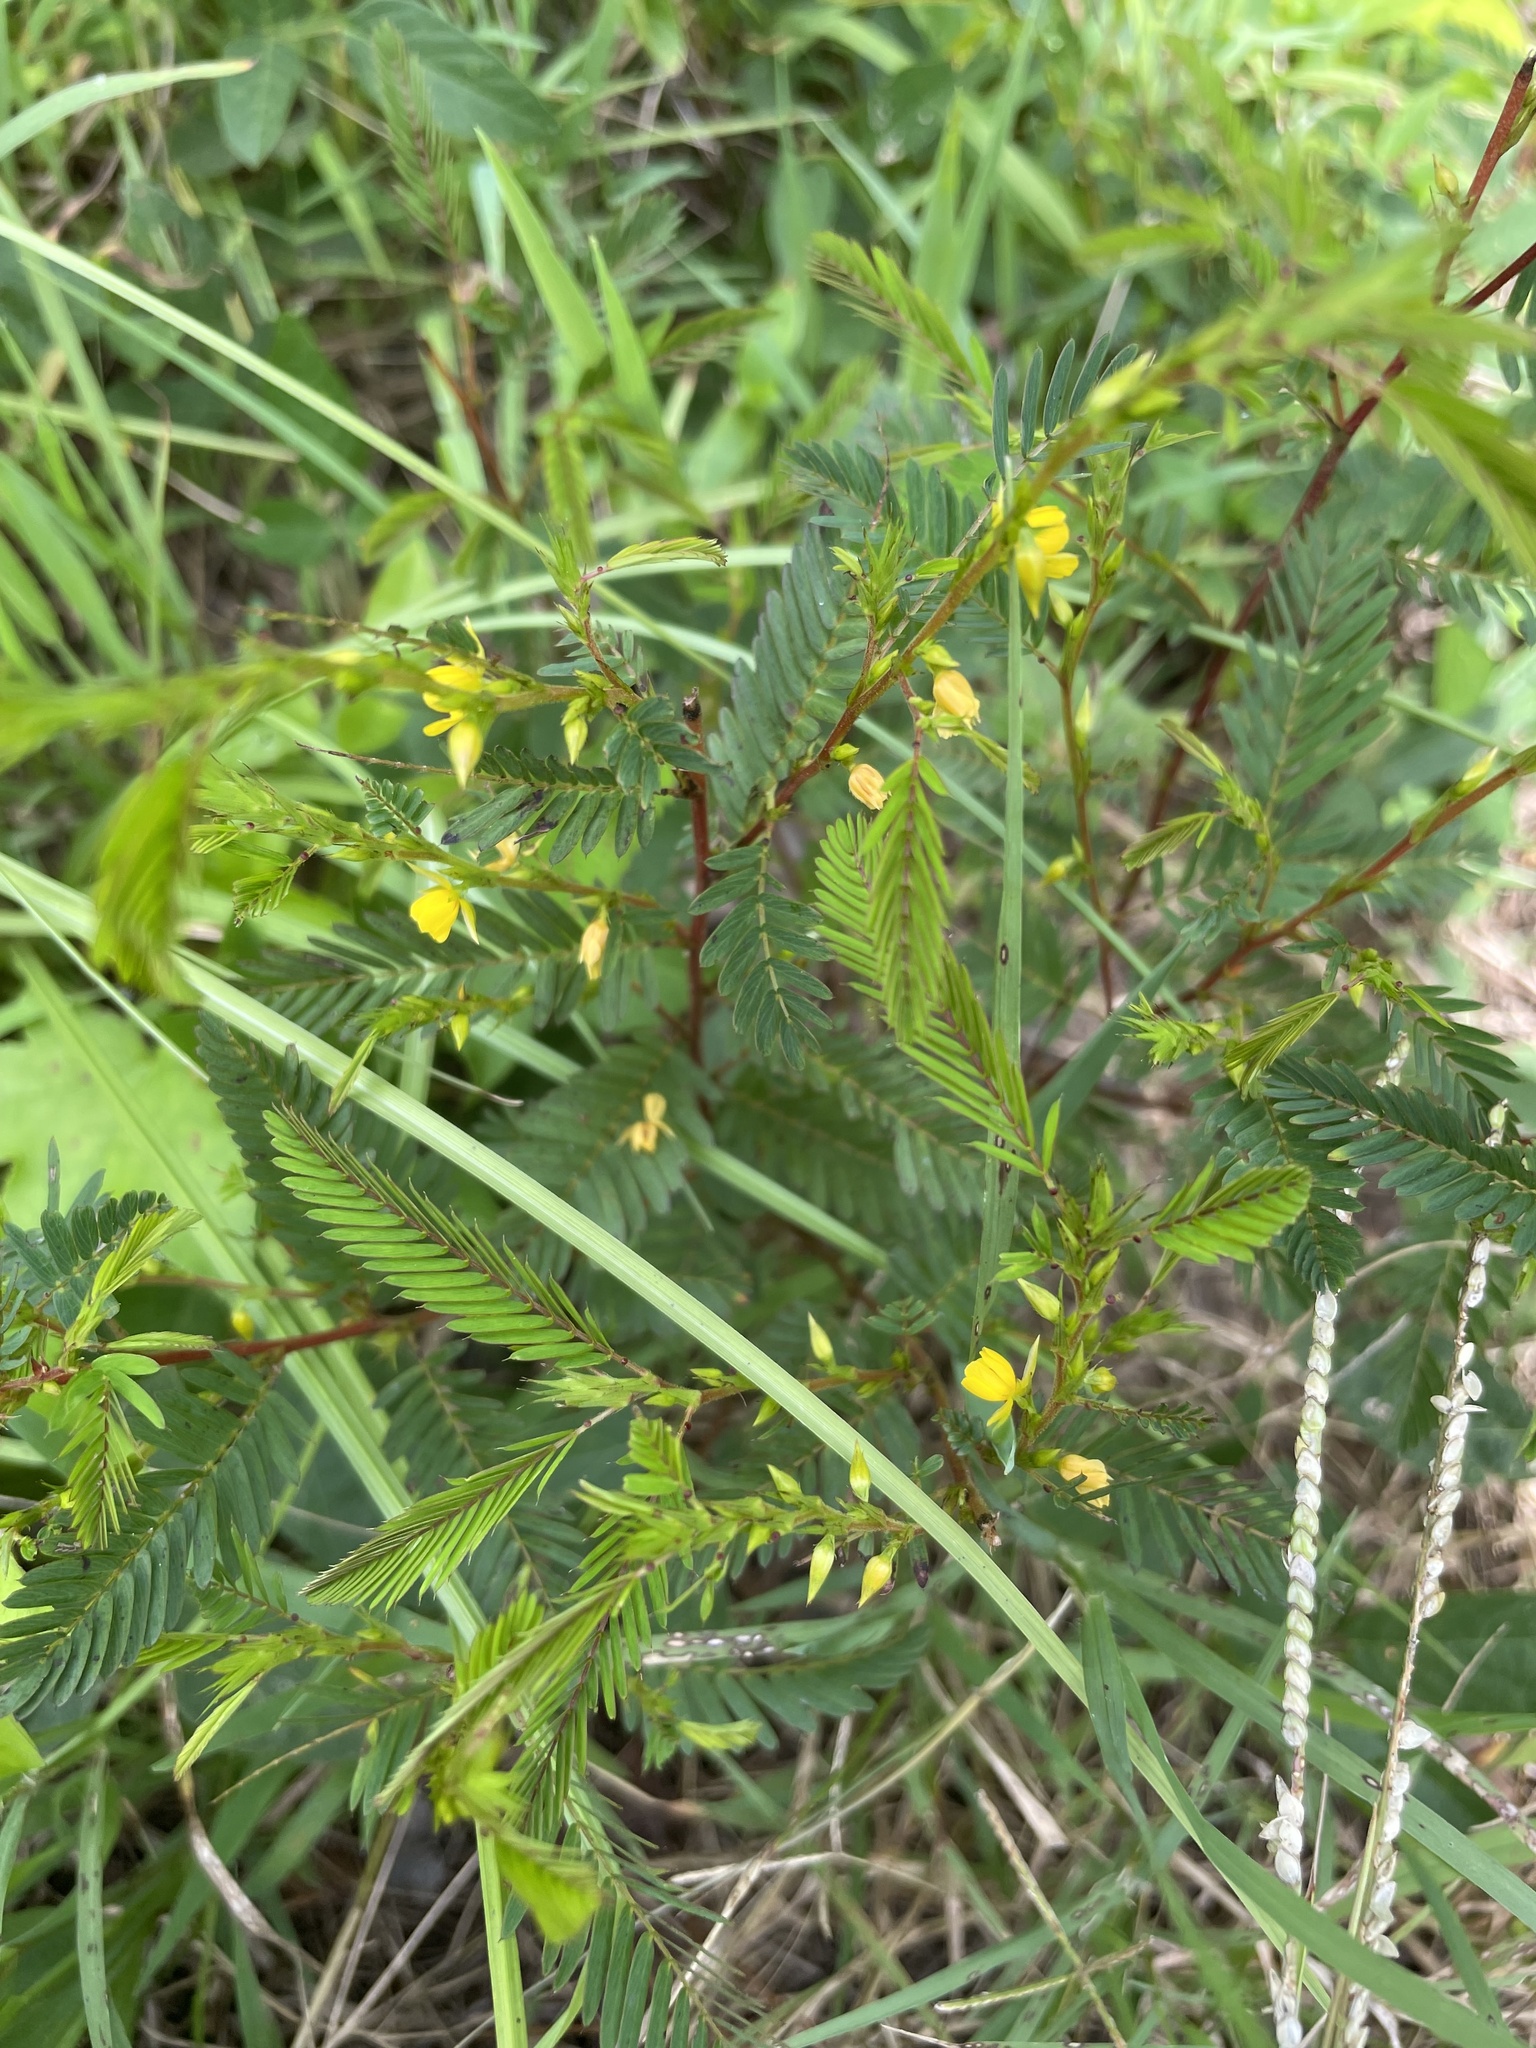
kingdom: Plantae
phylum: Tracheophyta
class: Magnoliopsida
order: Fabales
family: Fabaceae
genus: Chamaecrista
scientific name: Chamaecrista nictitans
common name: Sensitive cassia
